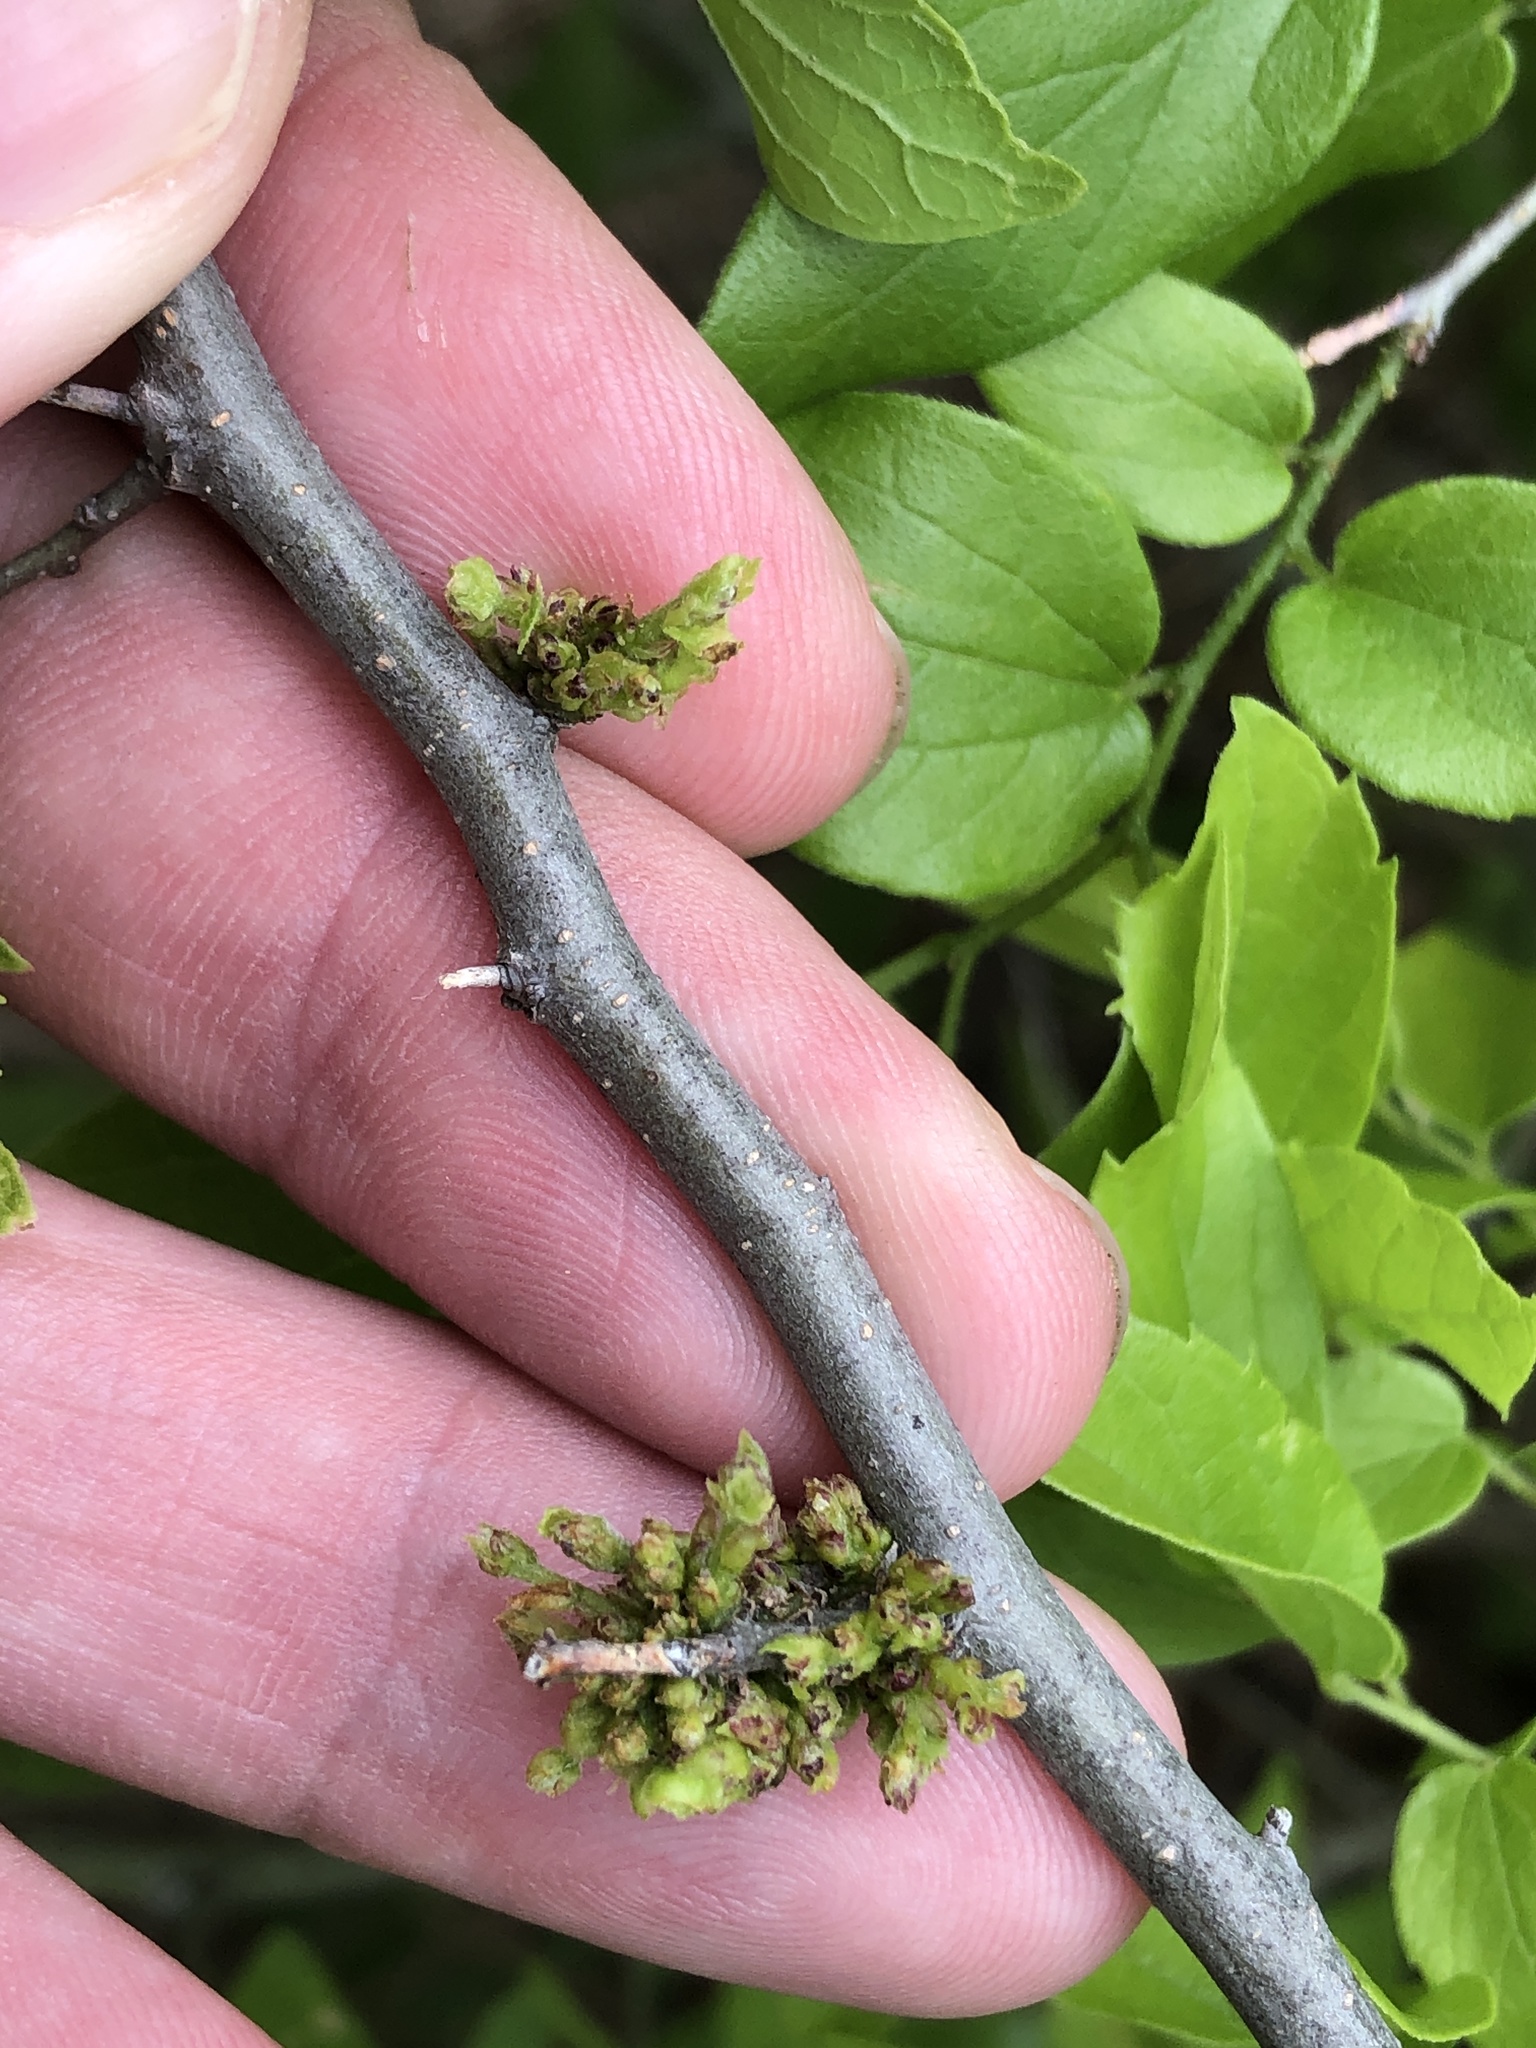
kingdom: Animalia
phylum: Arthropoda
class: Arachnida
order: Trombidiformes
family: Eriophyidae
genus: Aceria
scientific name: Aceria
